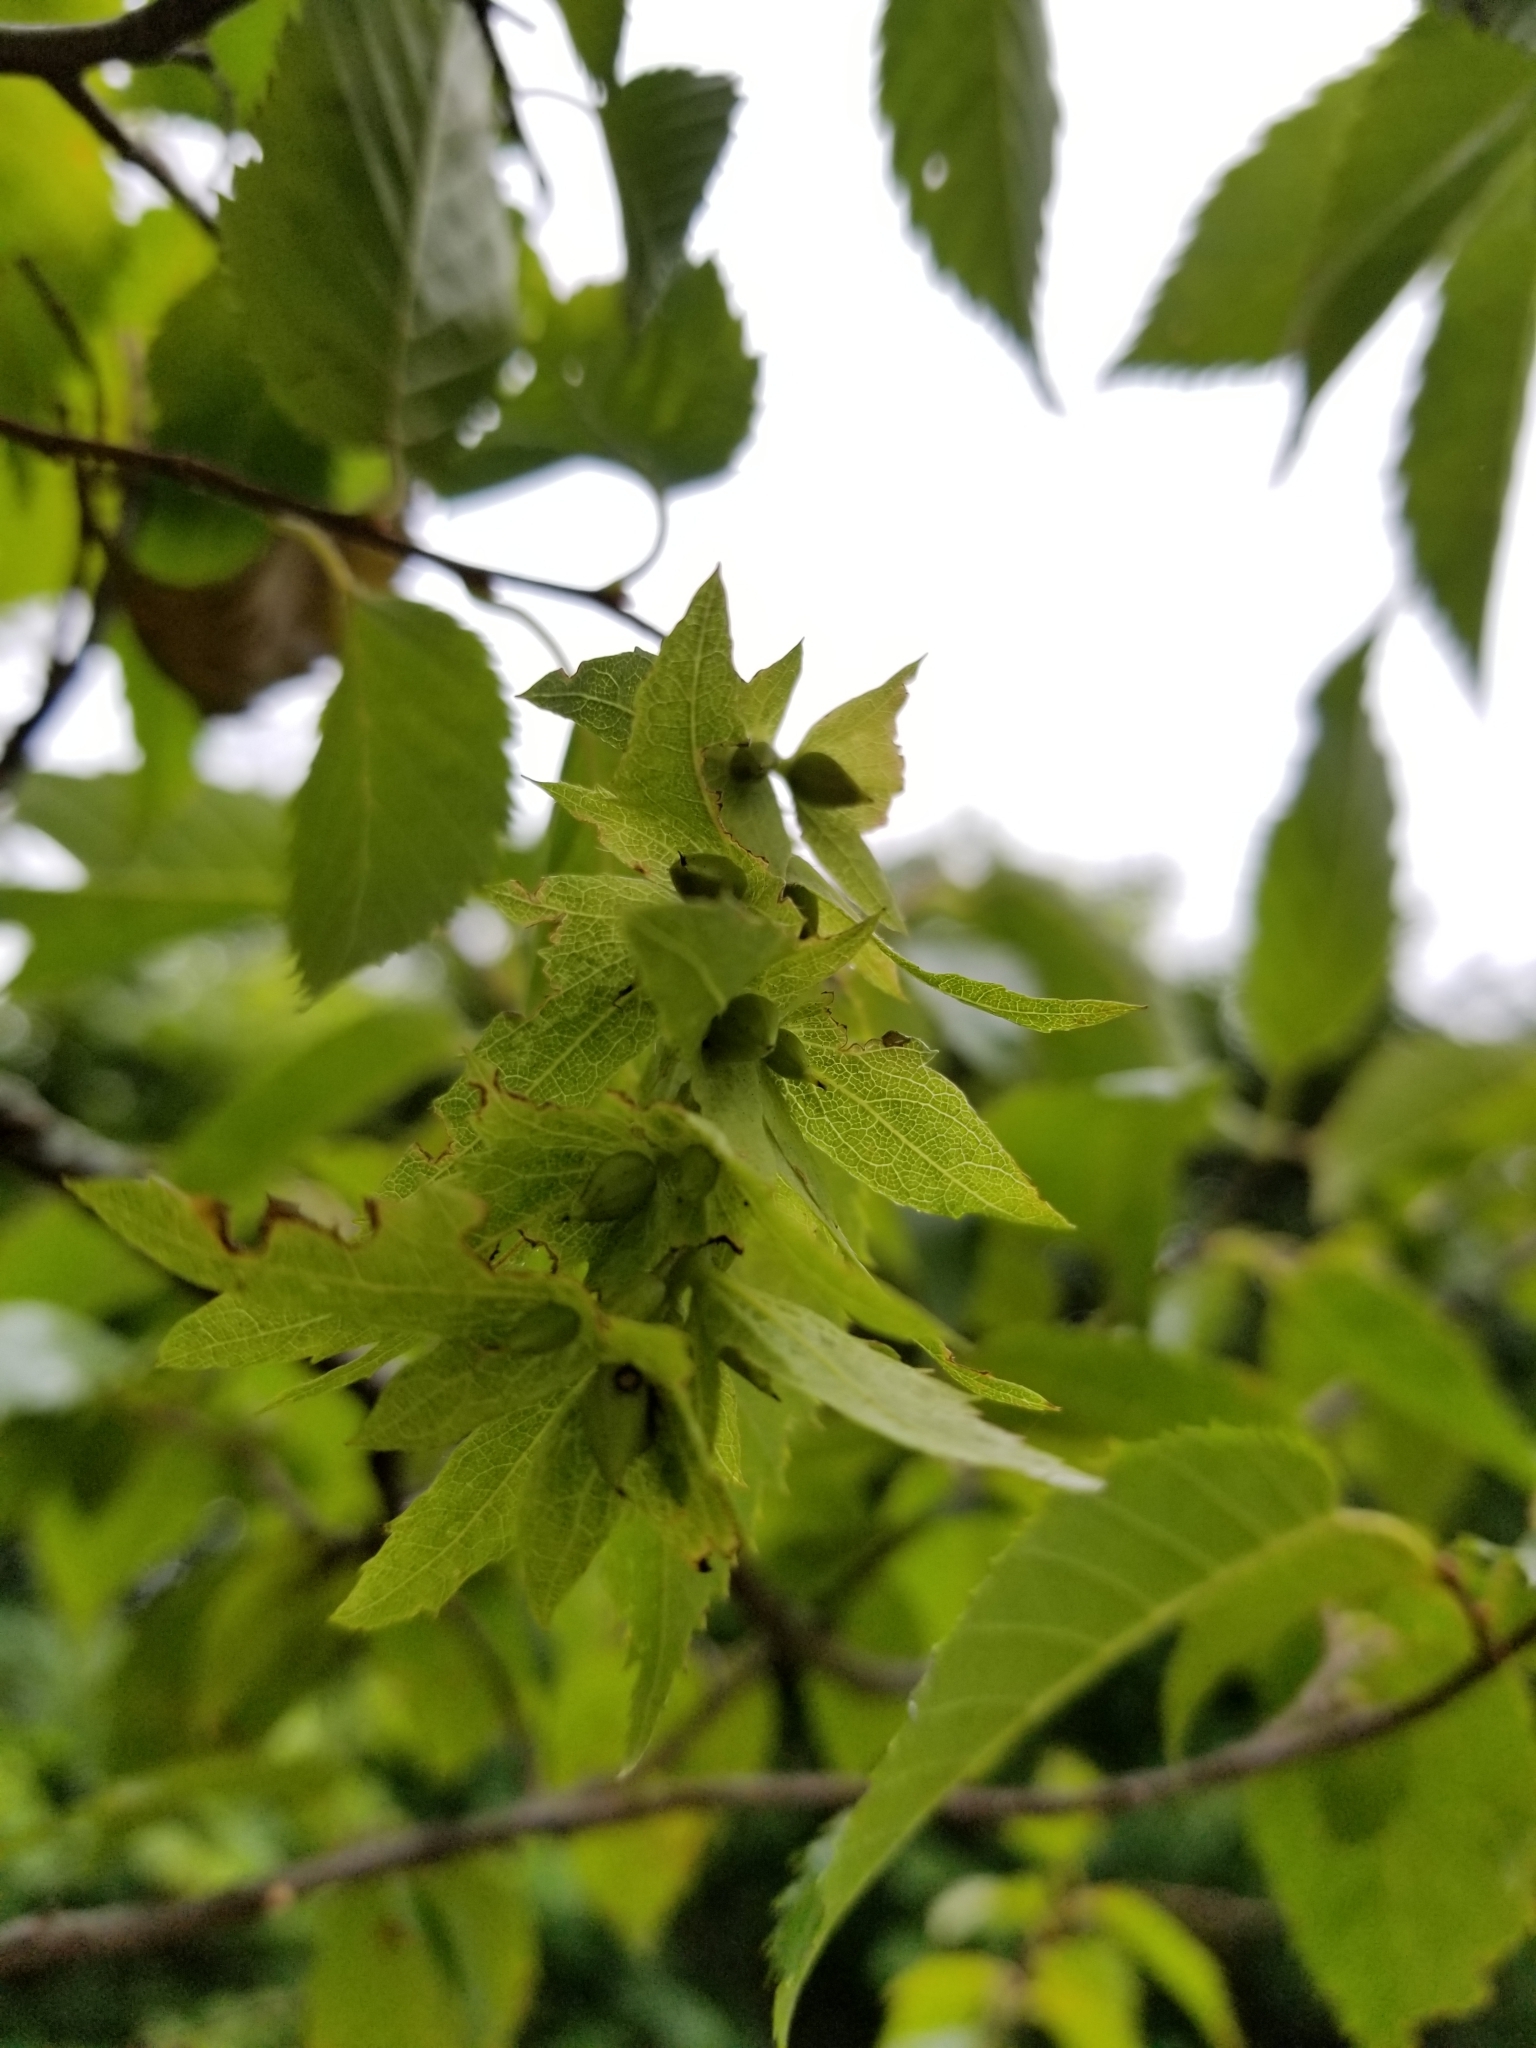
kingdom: Plantae
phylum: Tracheophyta
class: Magnoliopsida
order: Fagales
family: Betulaceae
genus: Carpinus
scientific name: Carpinus caroliniana
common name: American hornbeam
